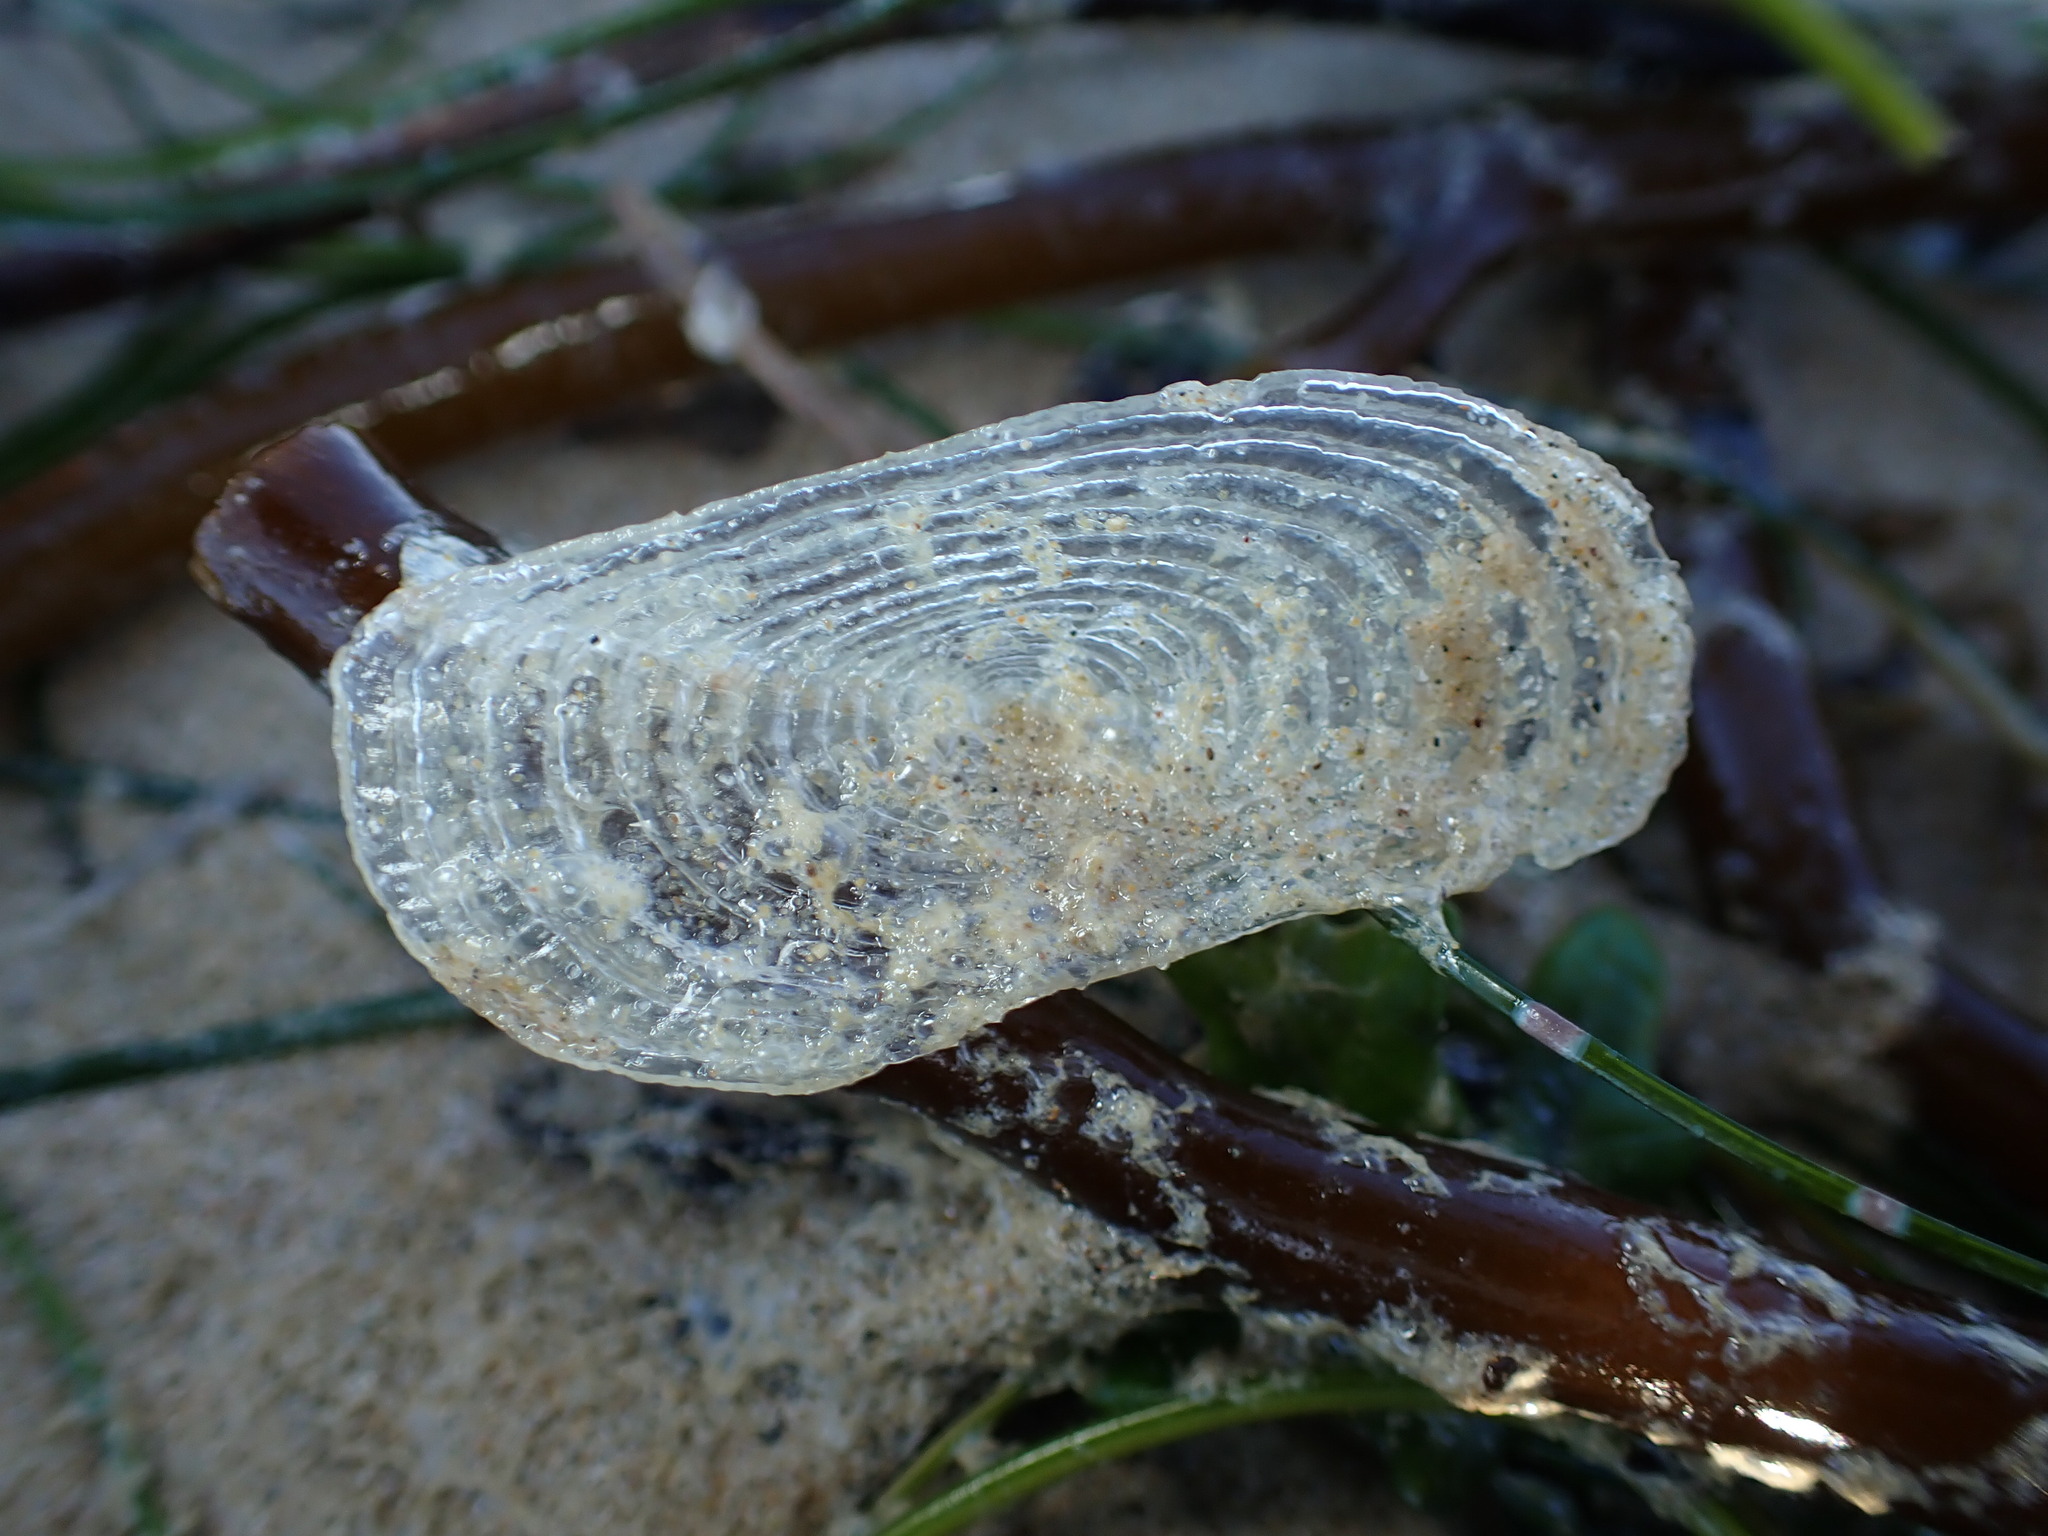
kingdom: Animalia
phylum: Cnidaria
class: Hydrozoa
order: Anthoathecata
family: Porpitidae
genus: Velella
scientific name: Velella velella
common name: By-the-wind-sailor
